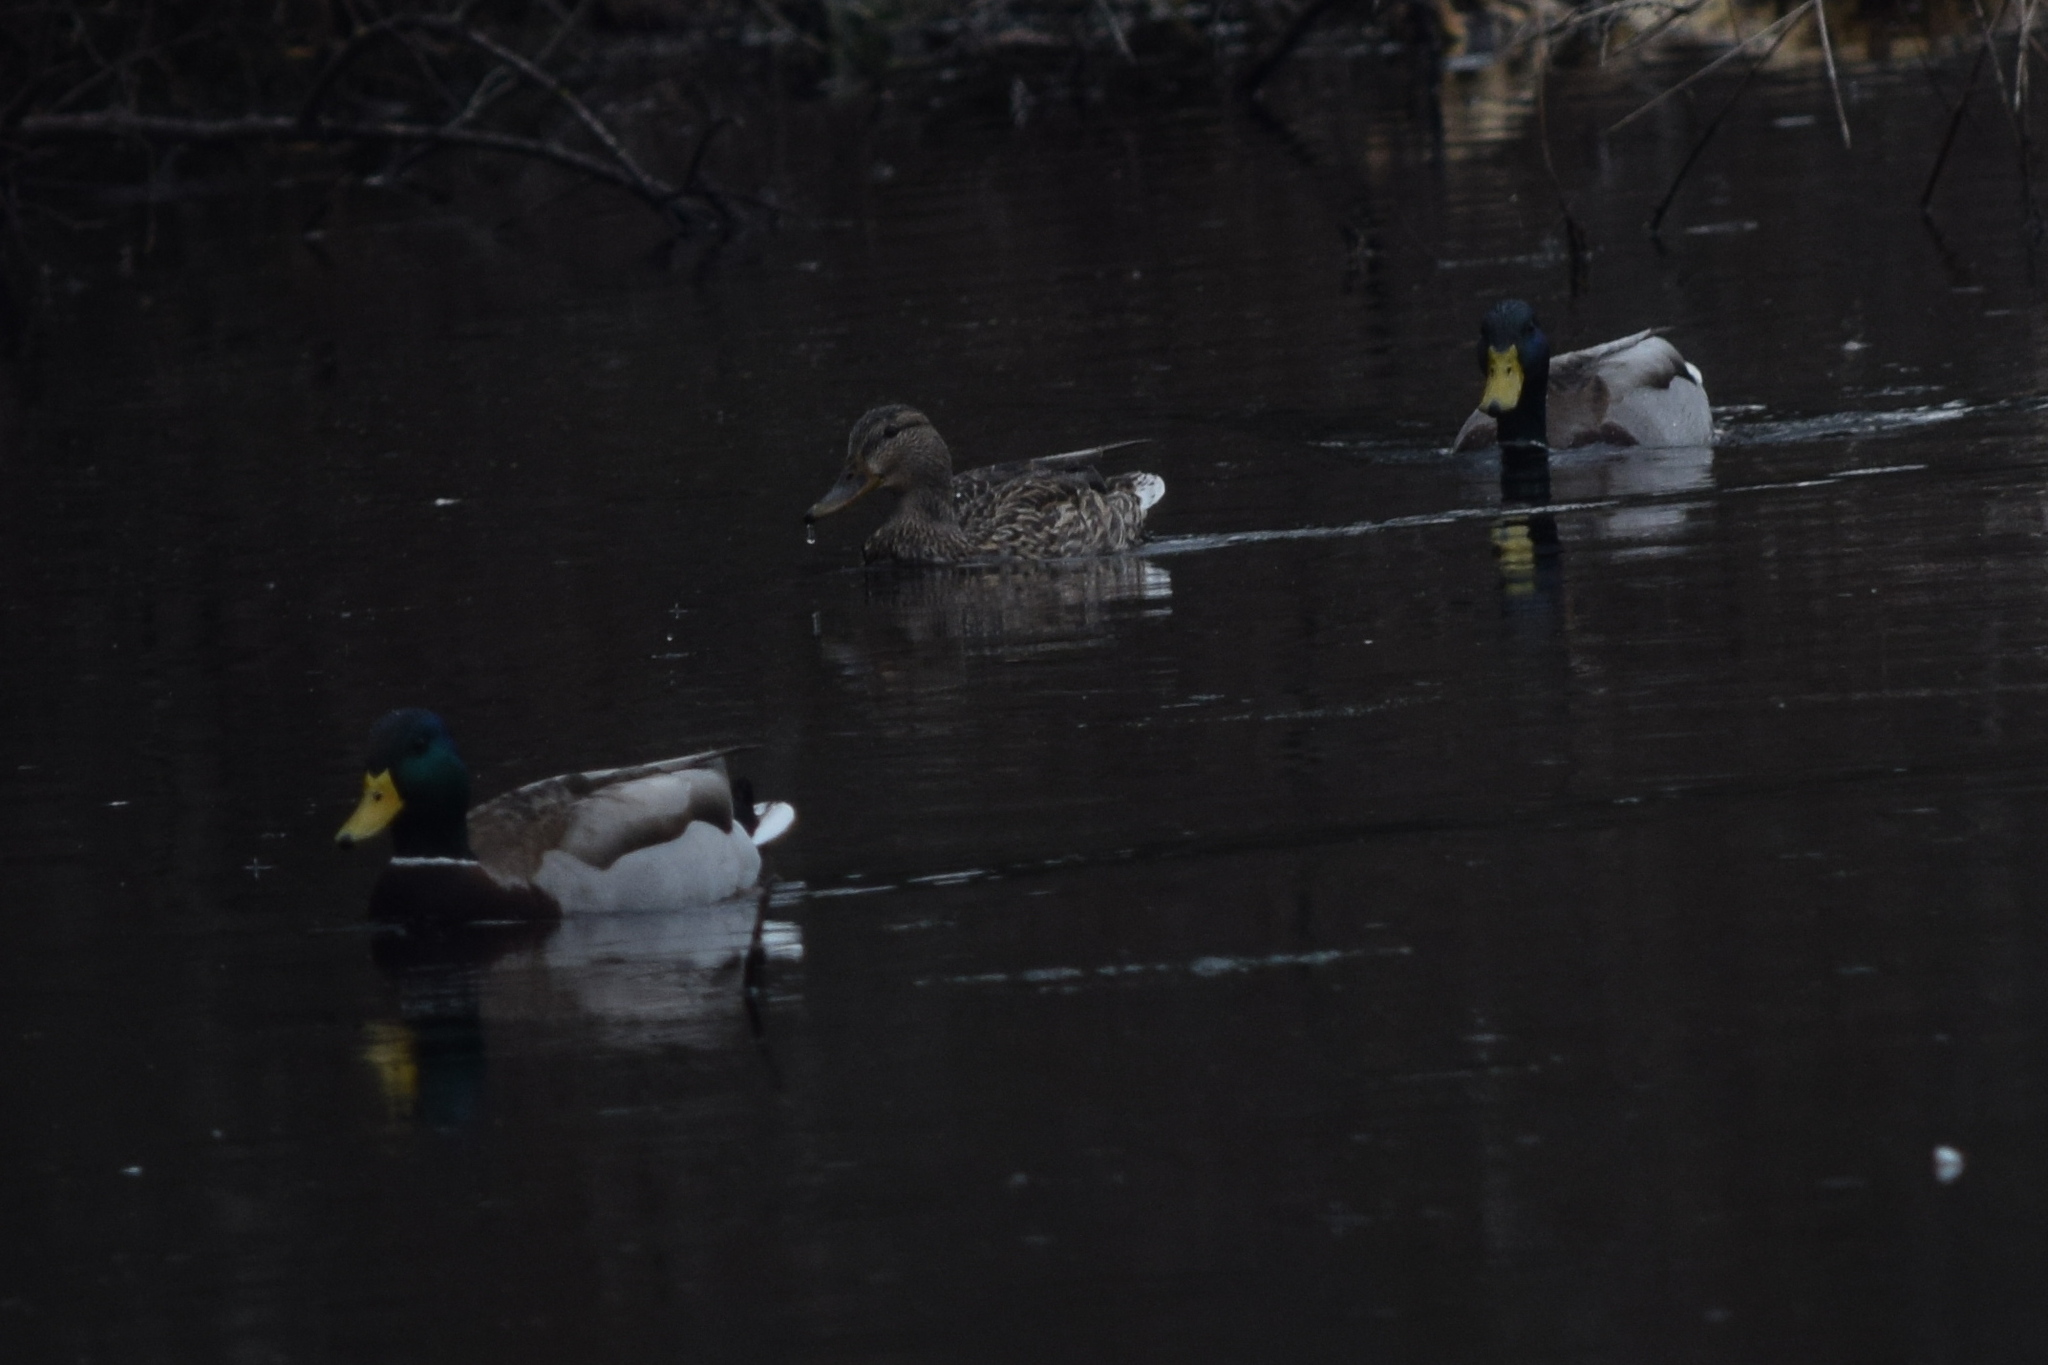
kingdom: Animalia
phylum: Chordata
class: Aves
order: Anseriformes
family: Anatidae
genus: Anas
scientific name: Anas platyrhynchos
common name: Mallard
